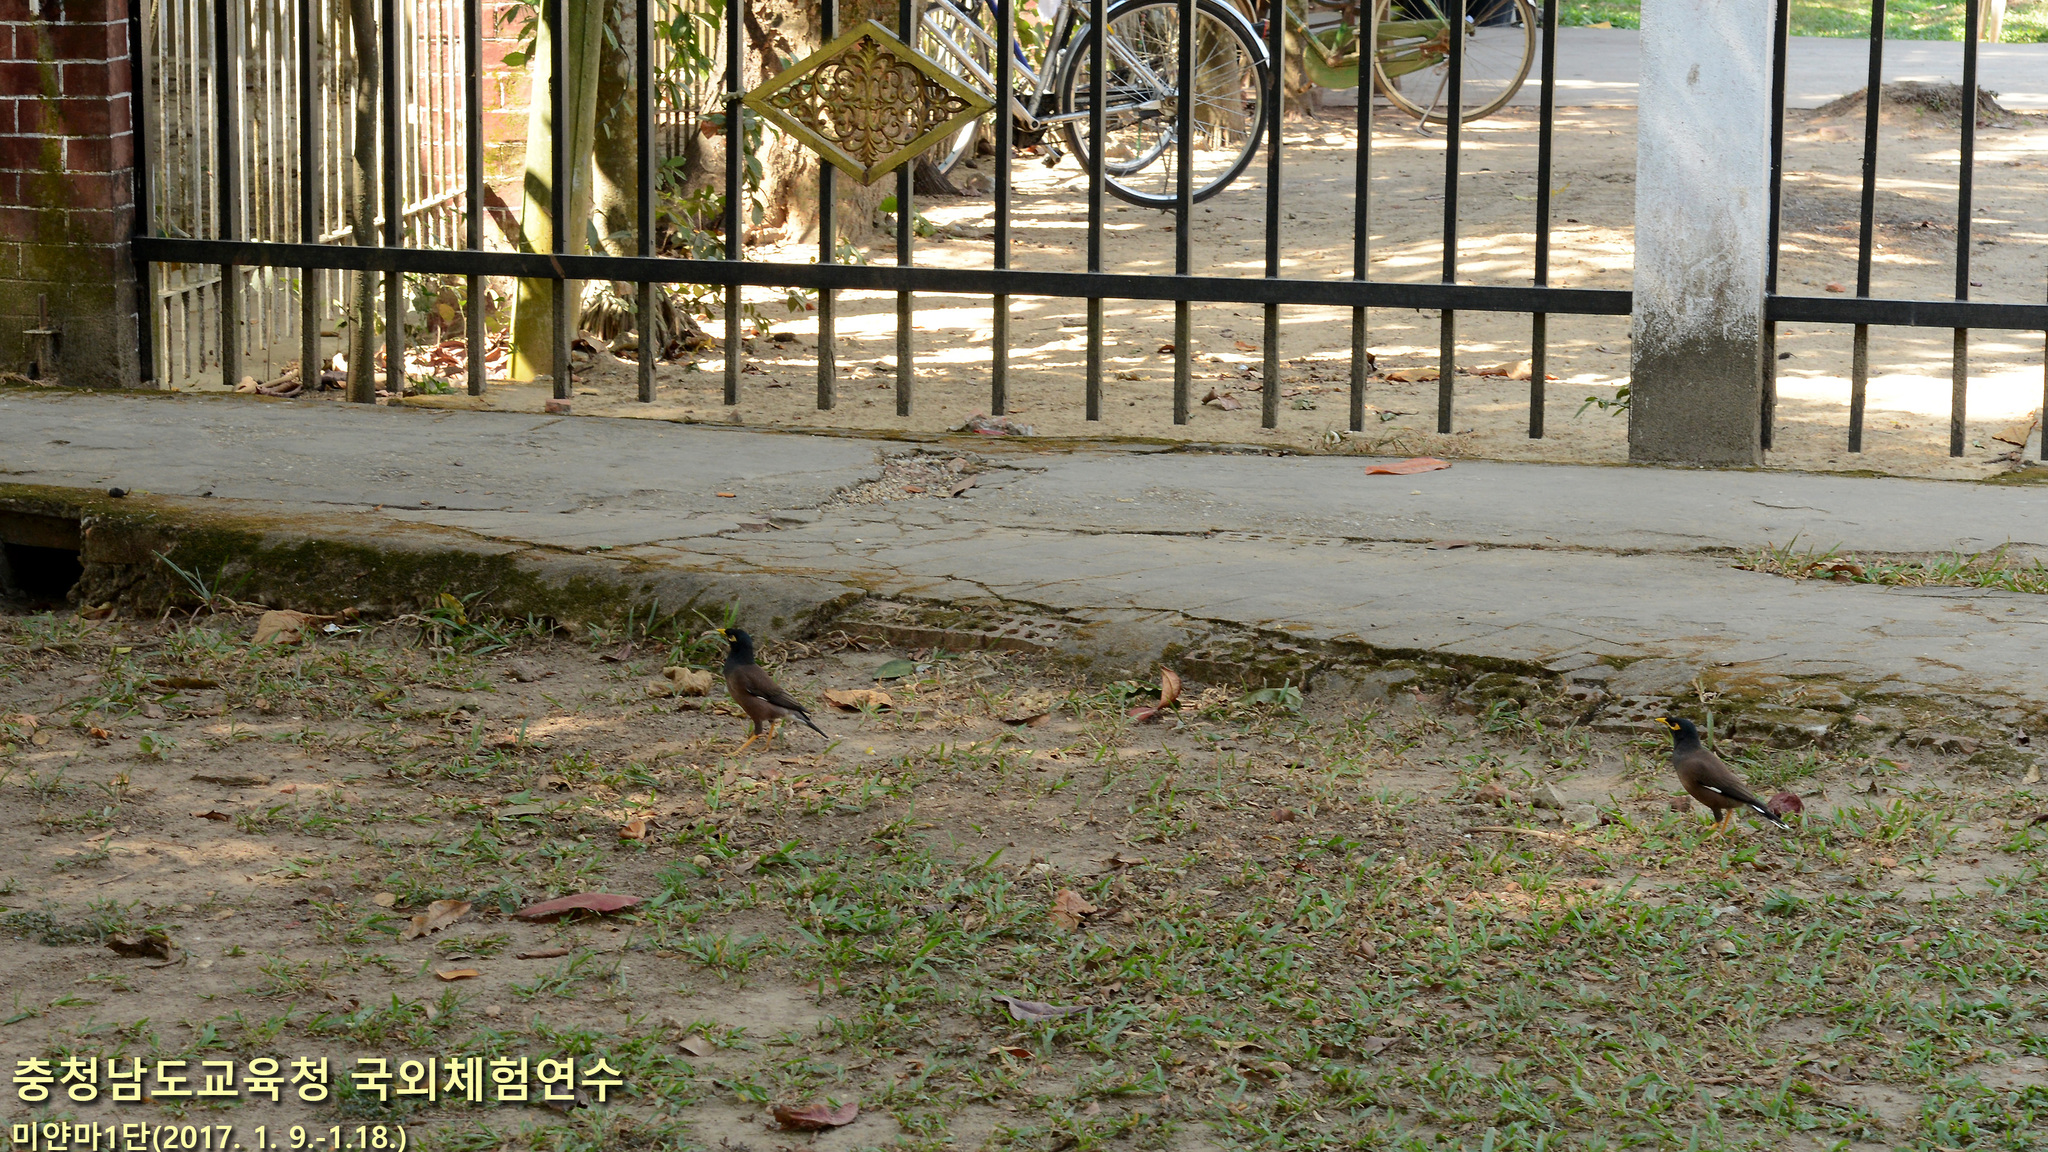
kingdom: Animalia
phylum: Chordata
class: Aves
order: Passeriformes
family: Sturnidae
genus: Acridotheres
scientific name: Acridotheres tristis
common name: Common myna
